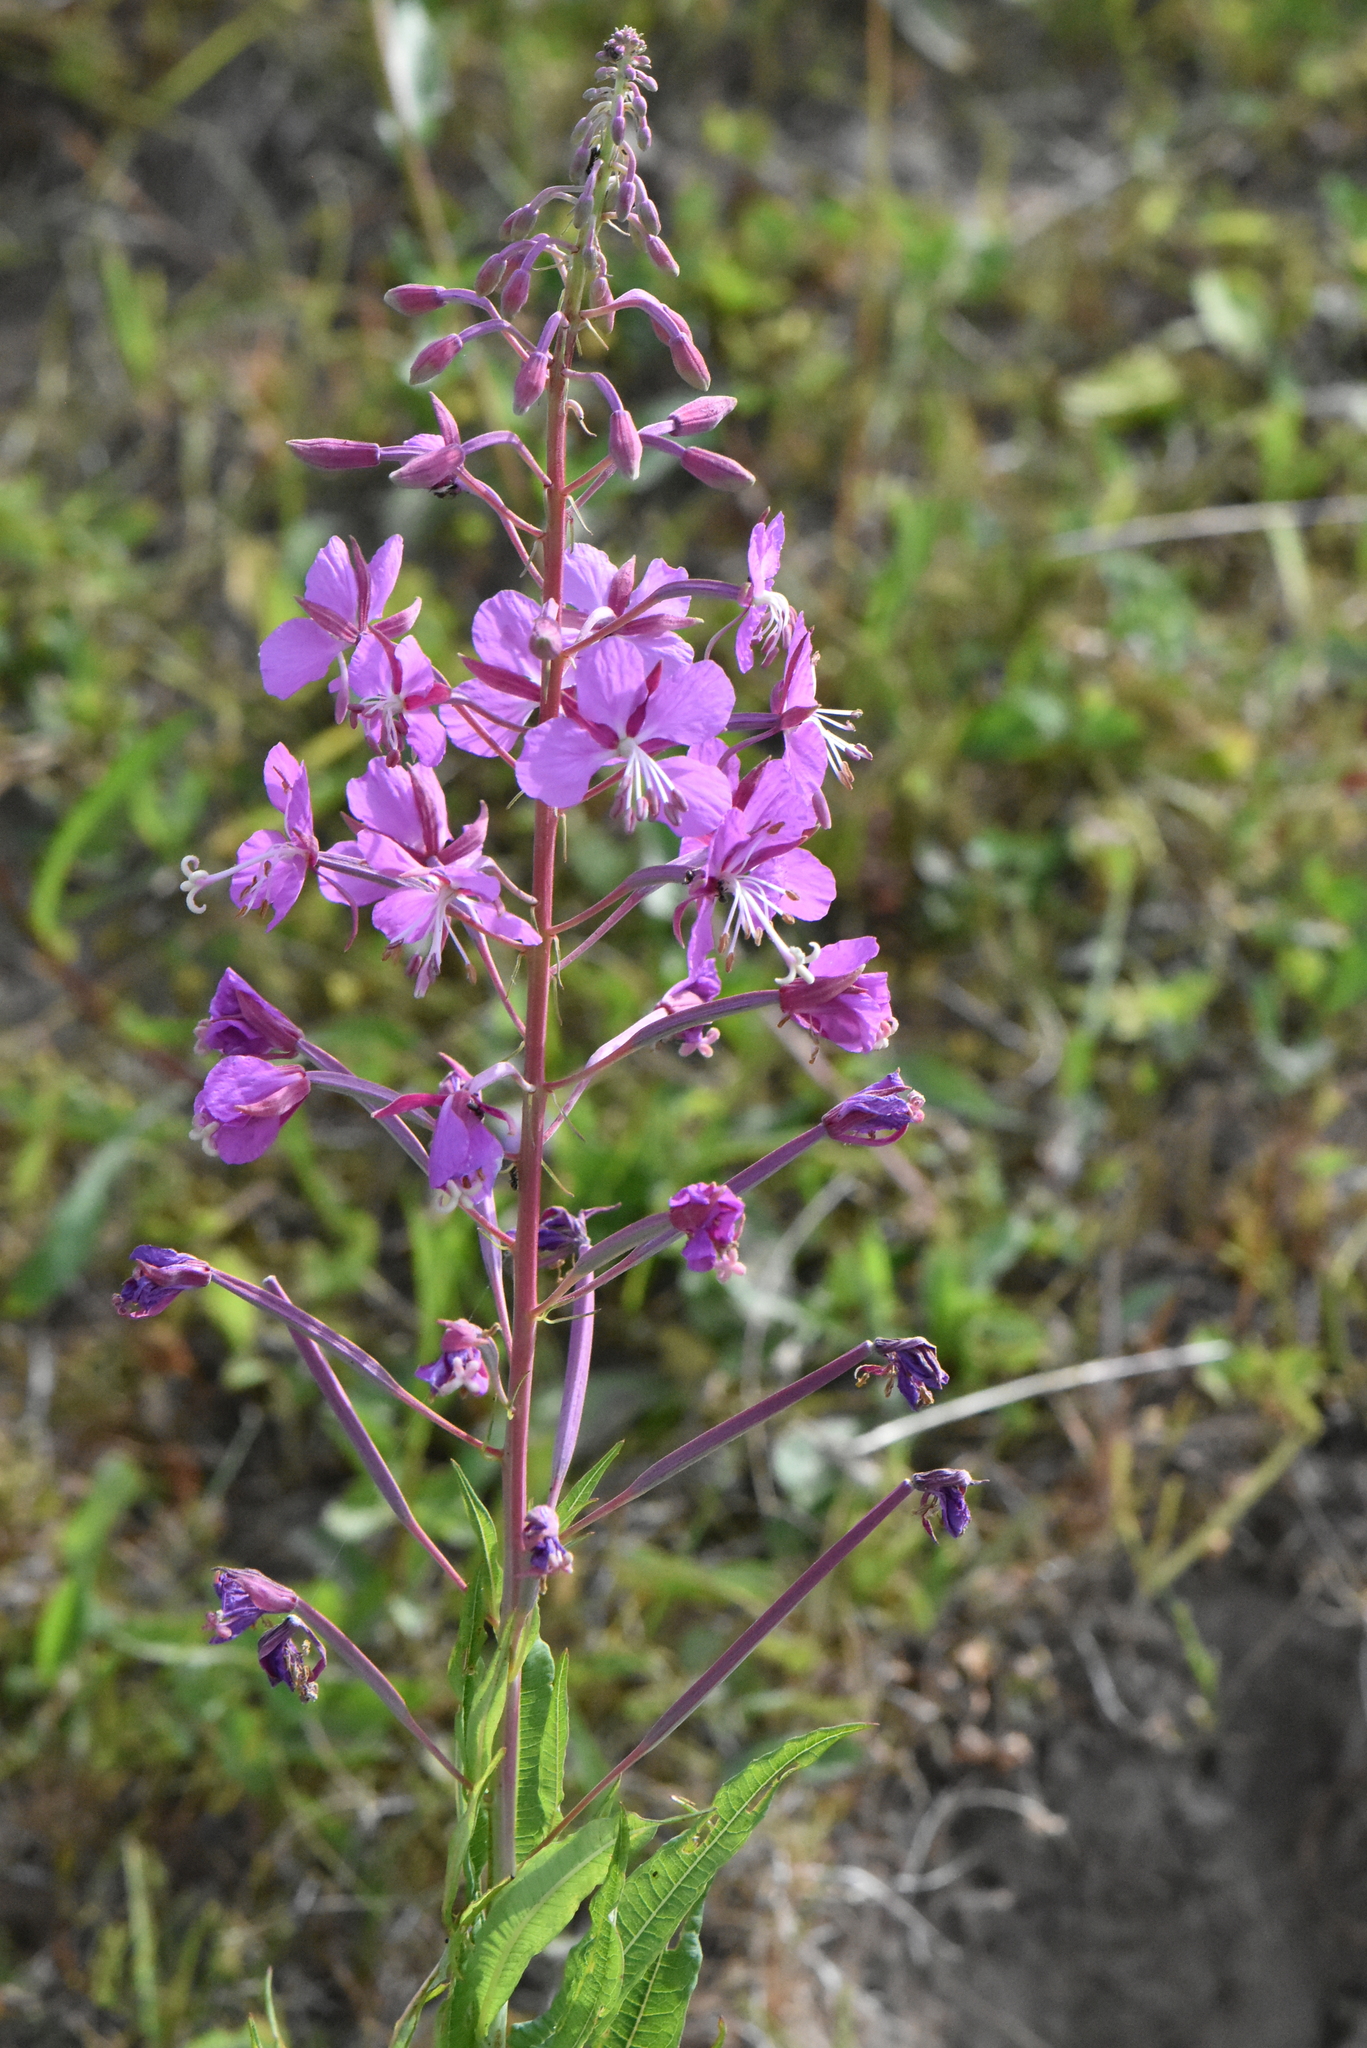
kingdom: Plantae
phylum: Tracheophyta
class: Magnoliopsida
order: Myrtales
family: Onagraceae
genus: Chamaenerion
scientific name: Chamaenerion angustifolium
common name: Fireweed
